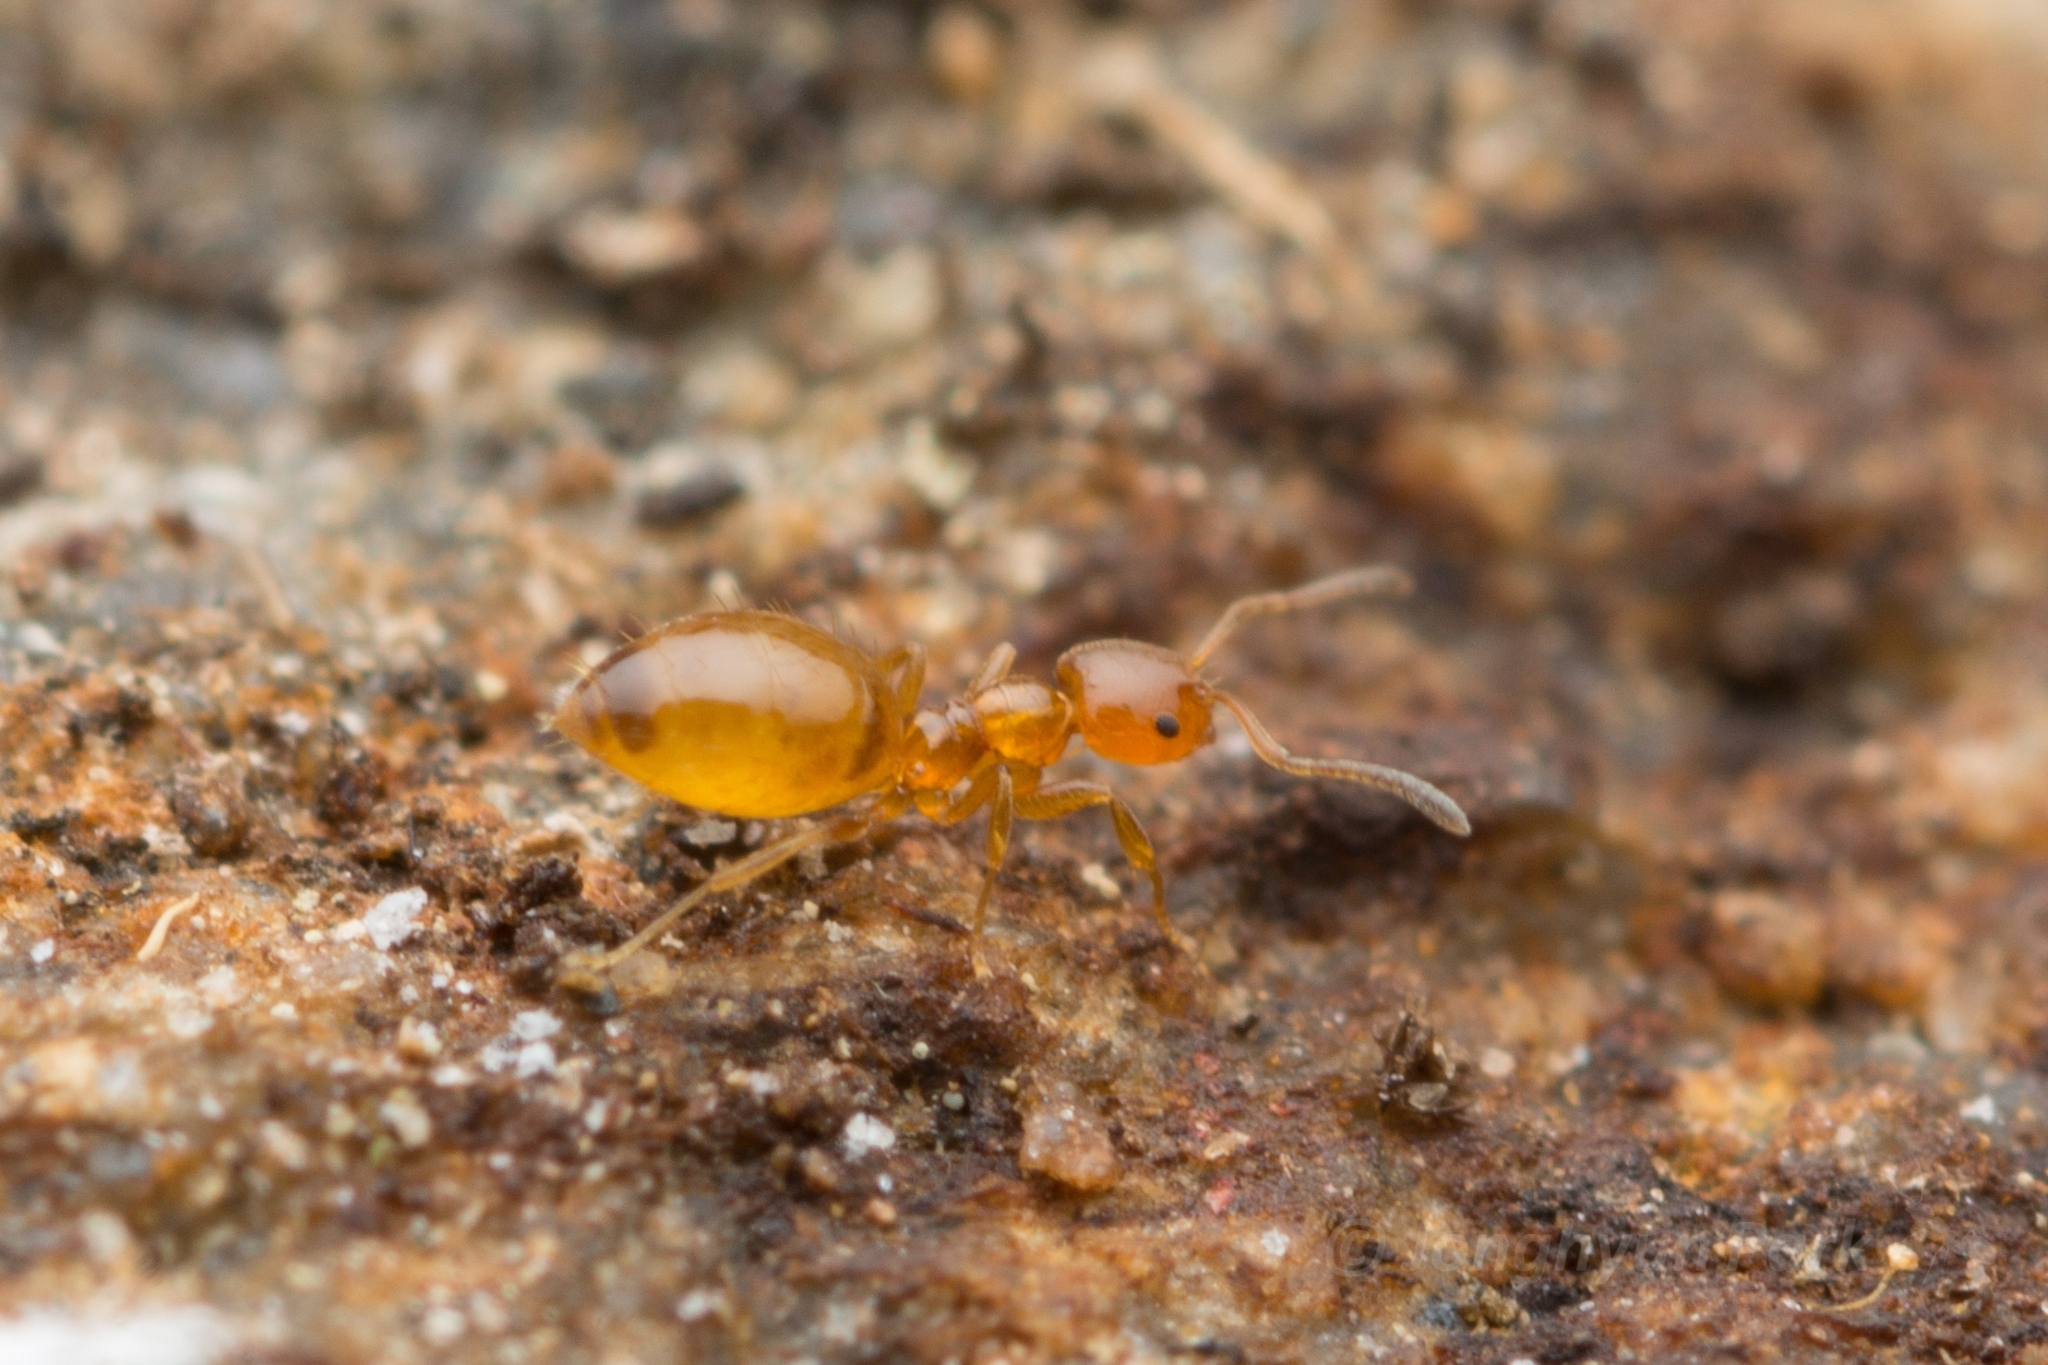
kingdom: Animalia
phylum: Arthropoda
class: Insecta
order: Hymenoptera
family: Formicidae
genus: Plagiolepis
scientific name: Plagiolepis flavescens
